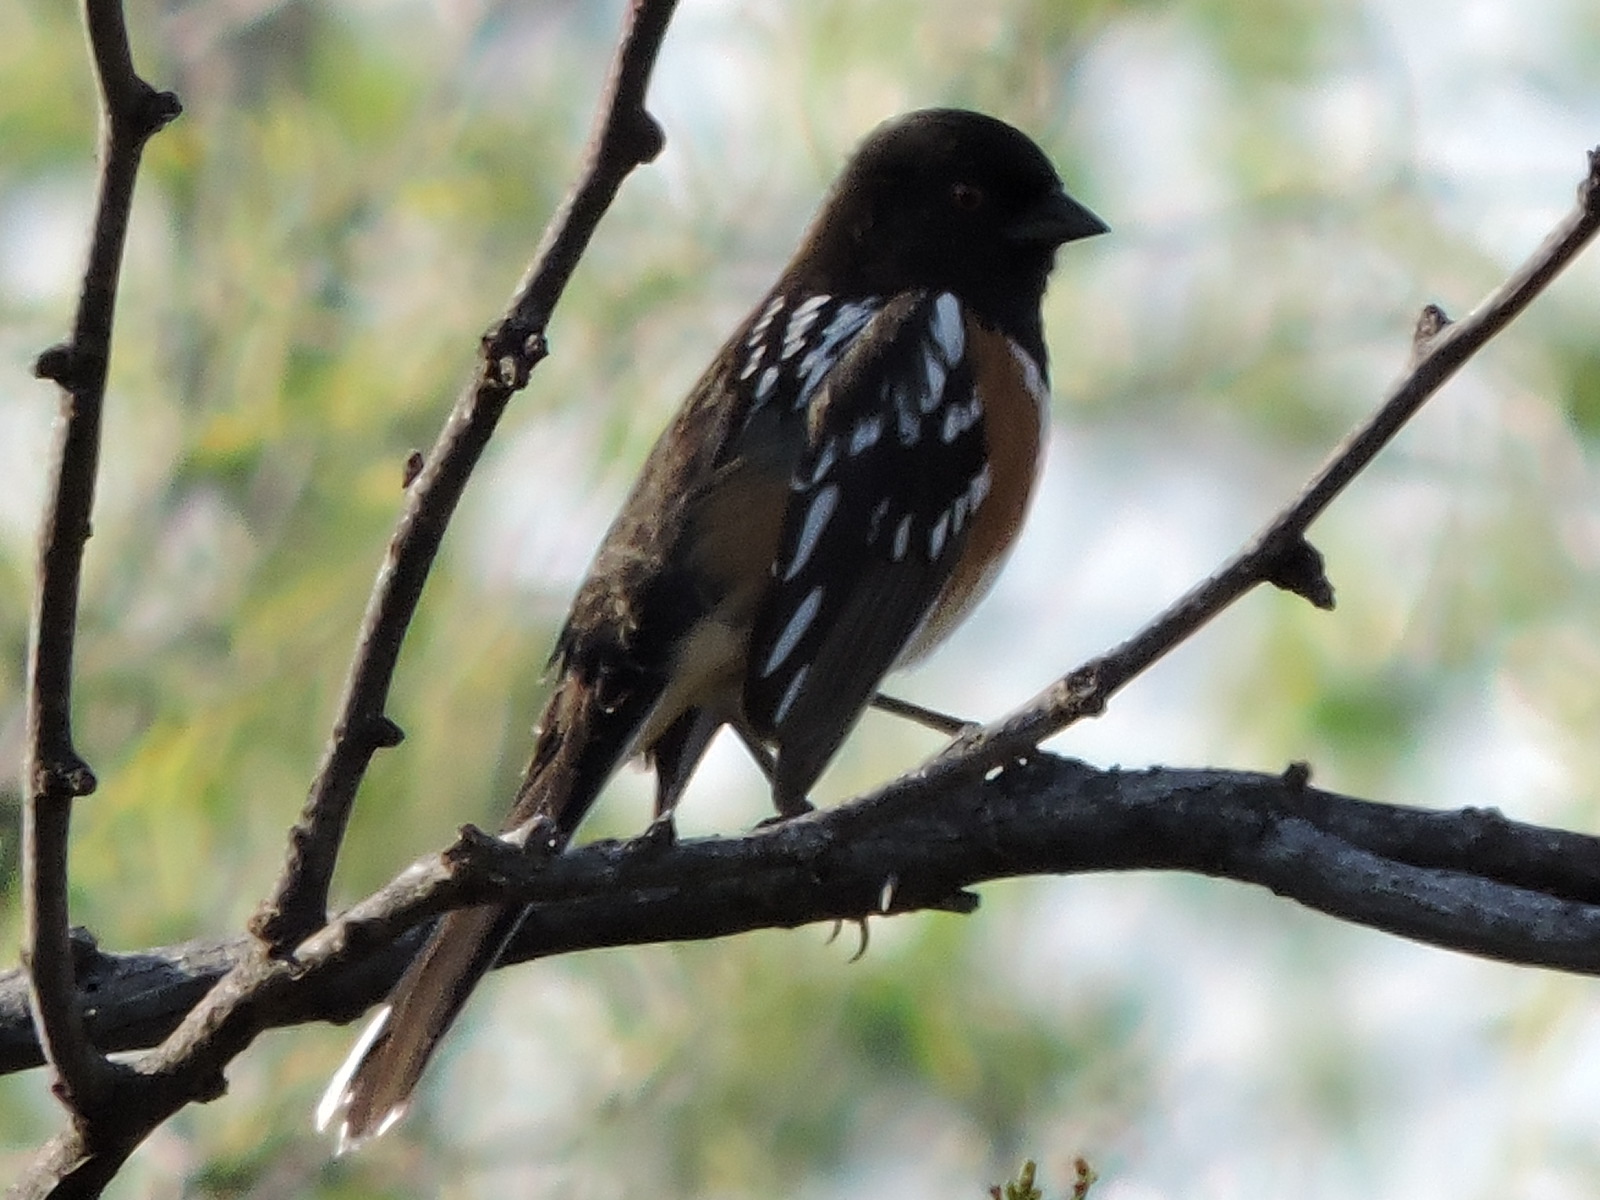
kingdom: Animalia
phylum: Chordata
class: Aves
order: Passeriformes
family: Passerellidae
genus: Pipilo
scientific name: Pipilo maculatus
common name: Spotted towhee
